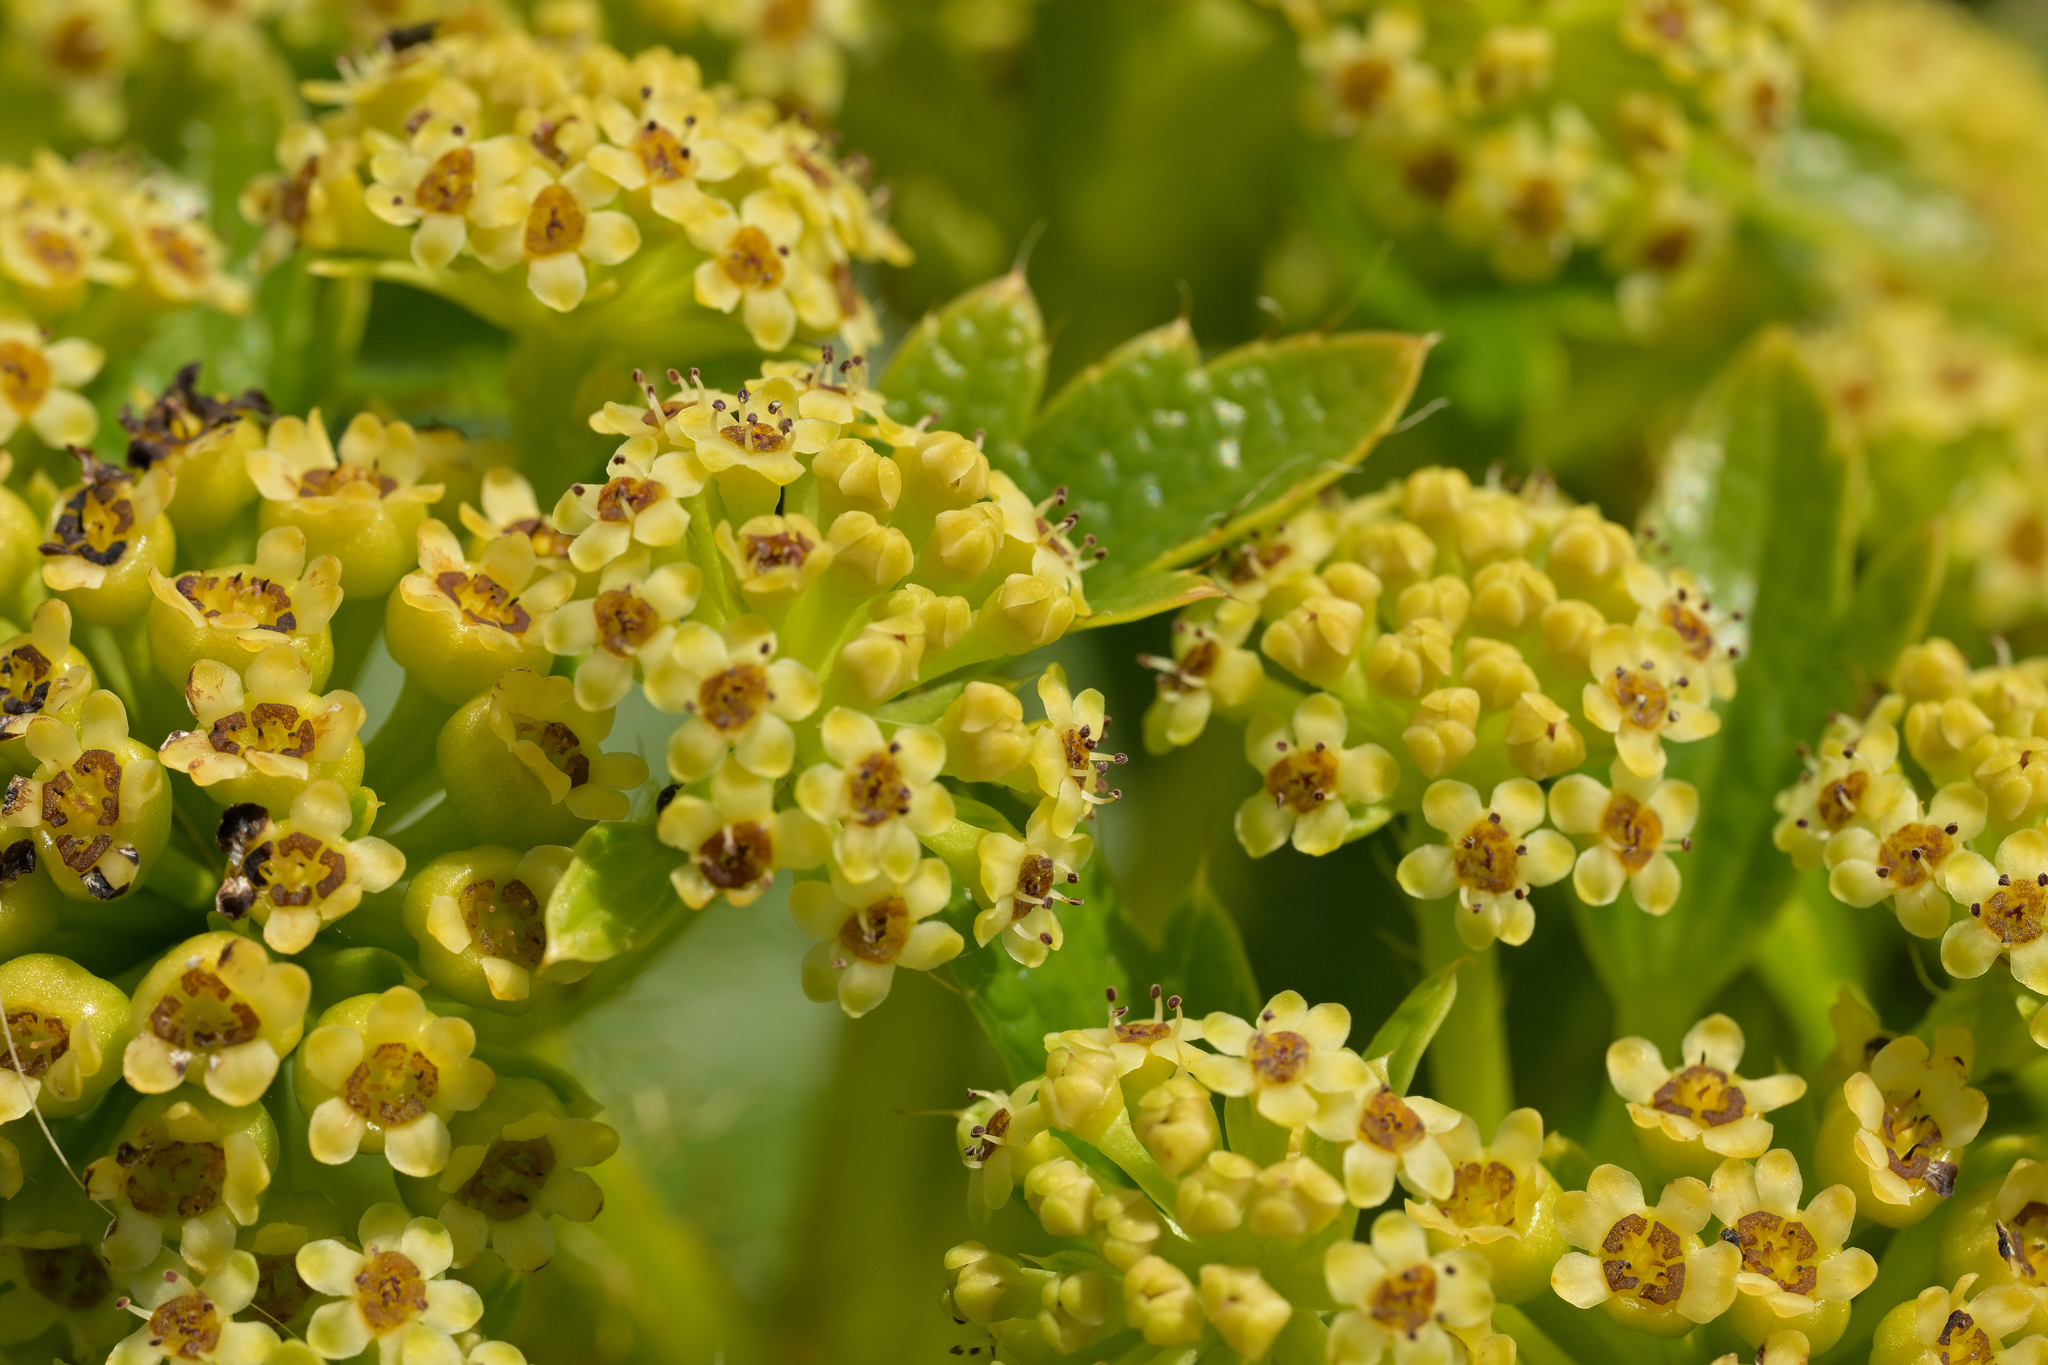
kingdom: Plantae
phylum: Tracheophyta
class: Magnoliopsida
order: Apiales
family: Apiaceae
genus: Azorella
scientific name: Azorella polaris
